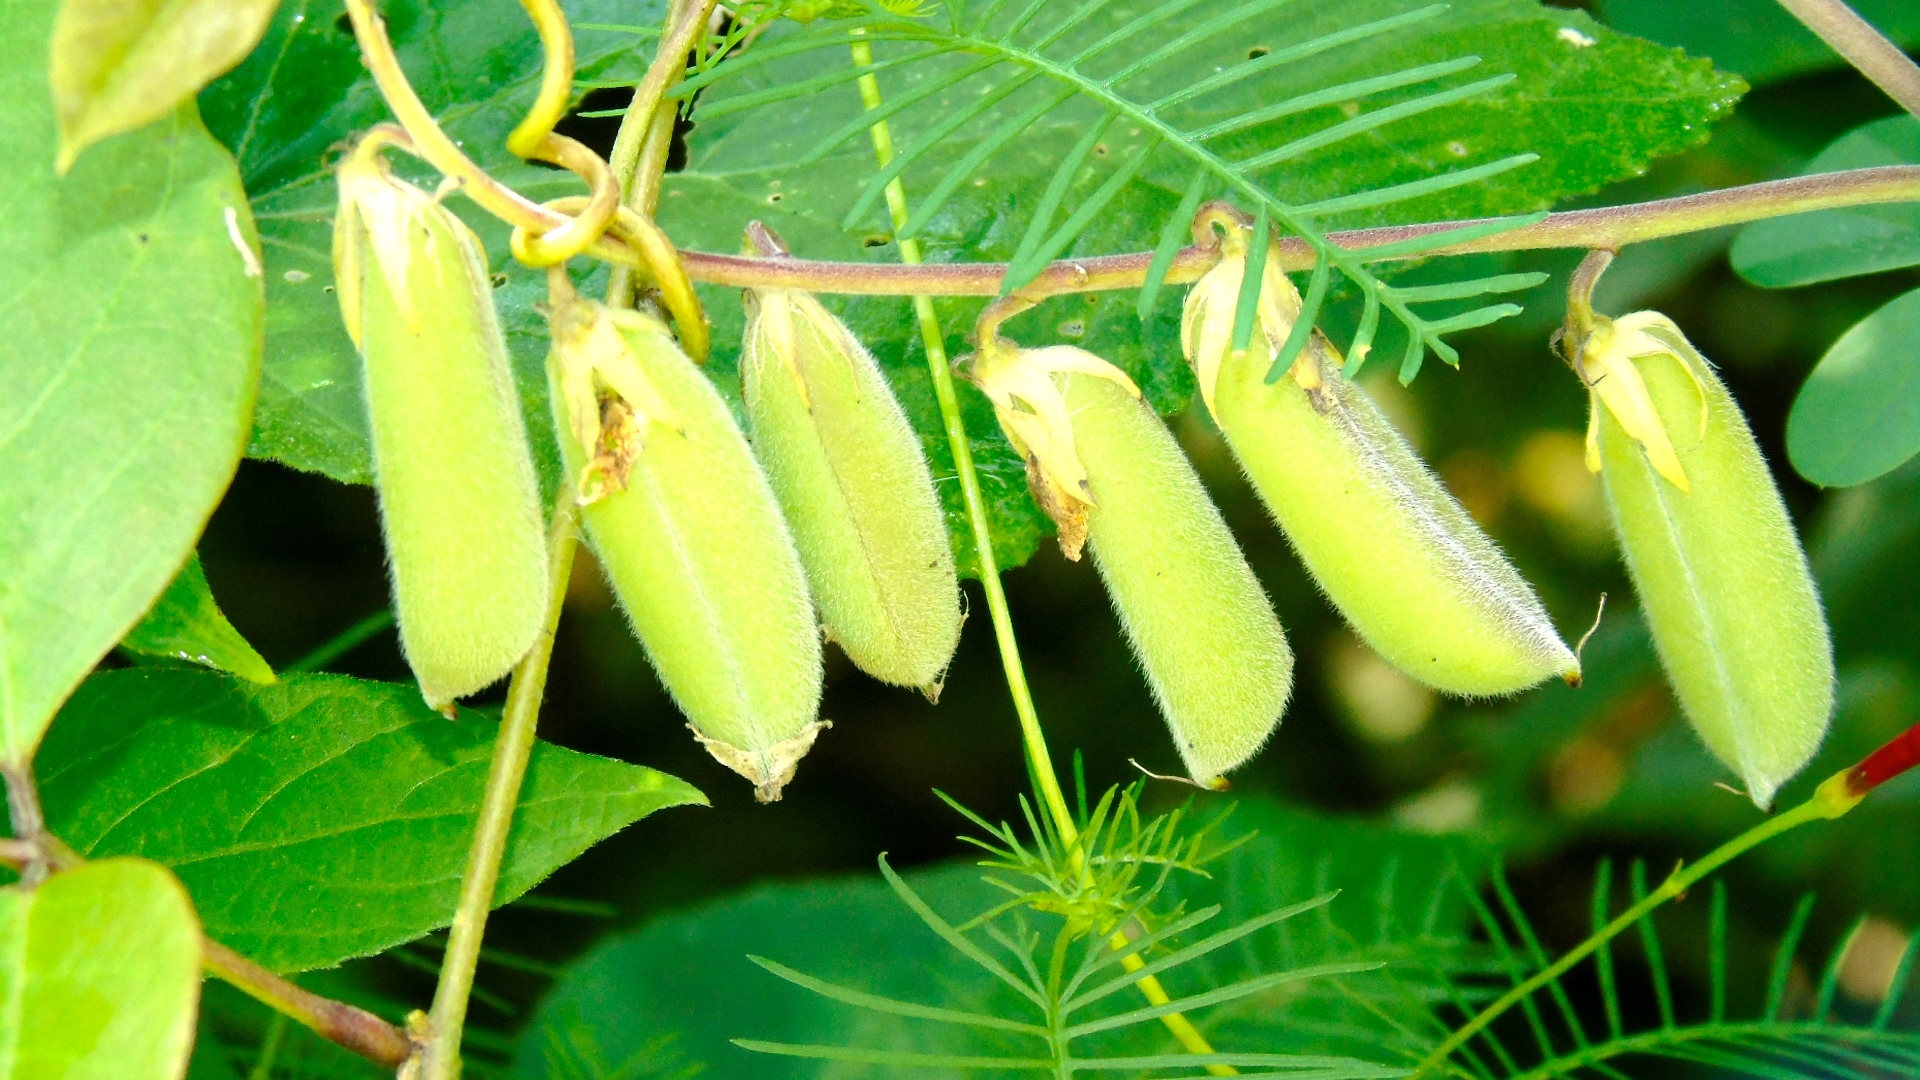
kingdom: Plantae
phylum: Tracheophyta
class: Magnoliopsida
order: Fabales
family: Fabaceae
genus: Crotalaria
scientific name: Crotalaria
